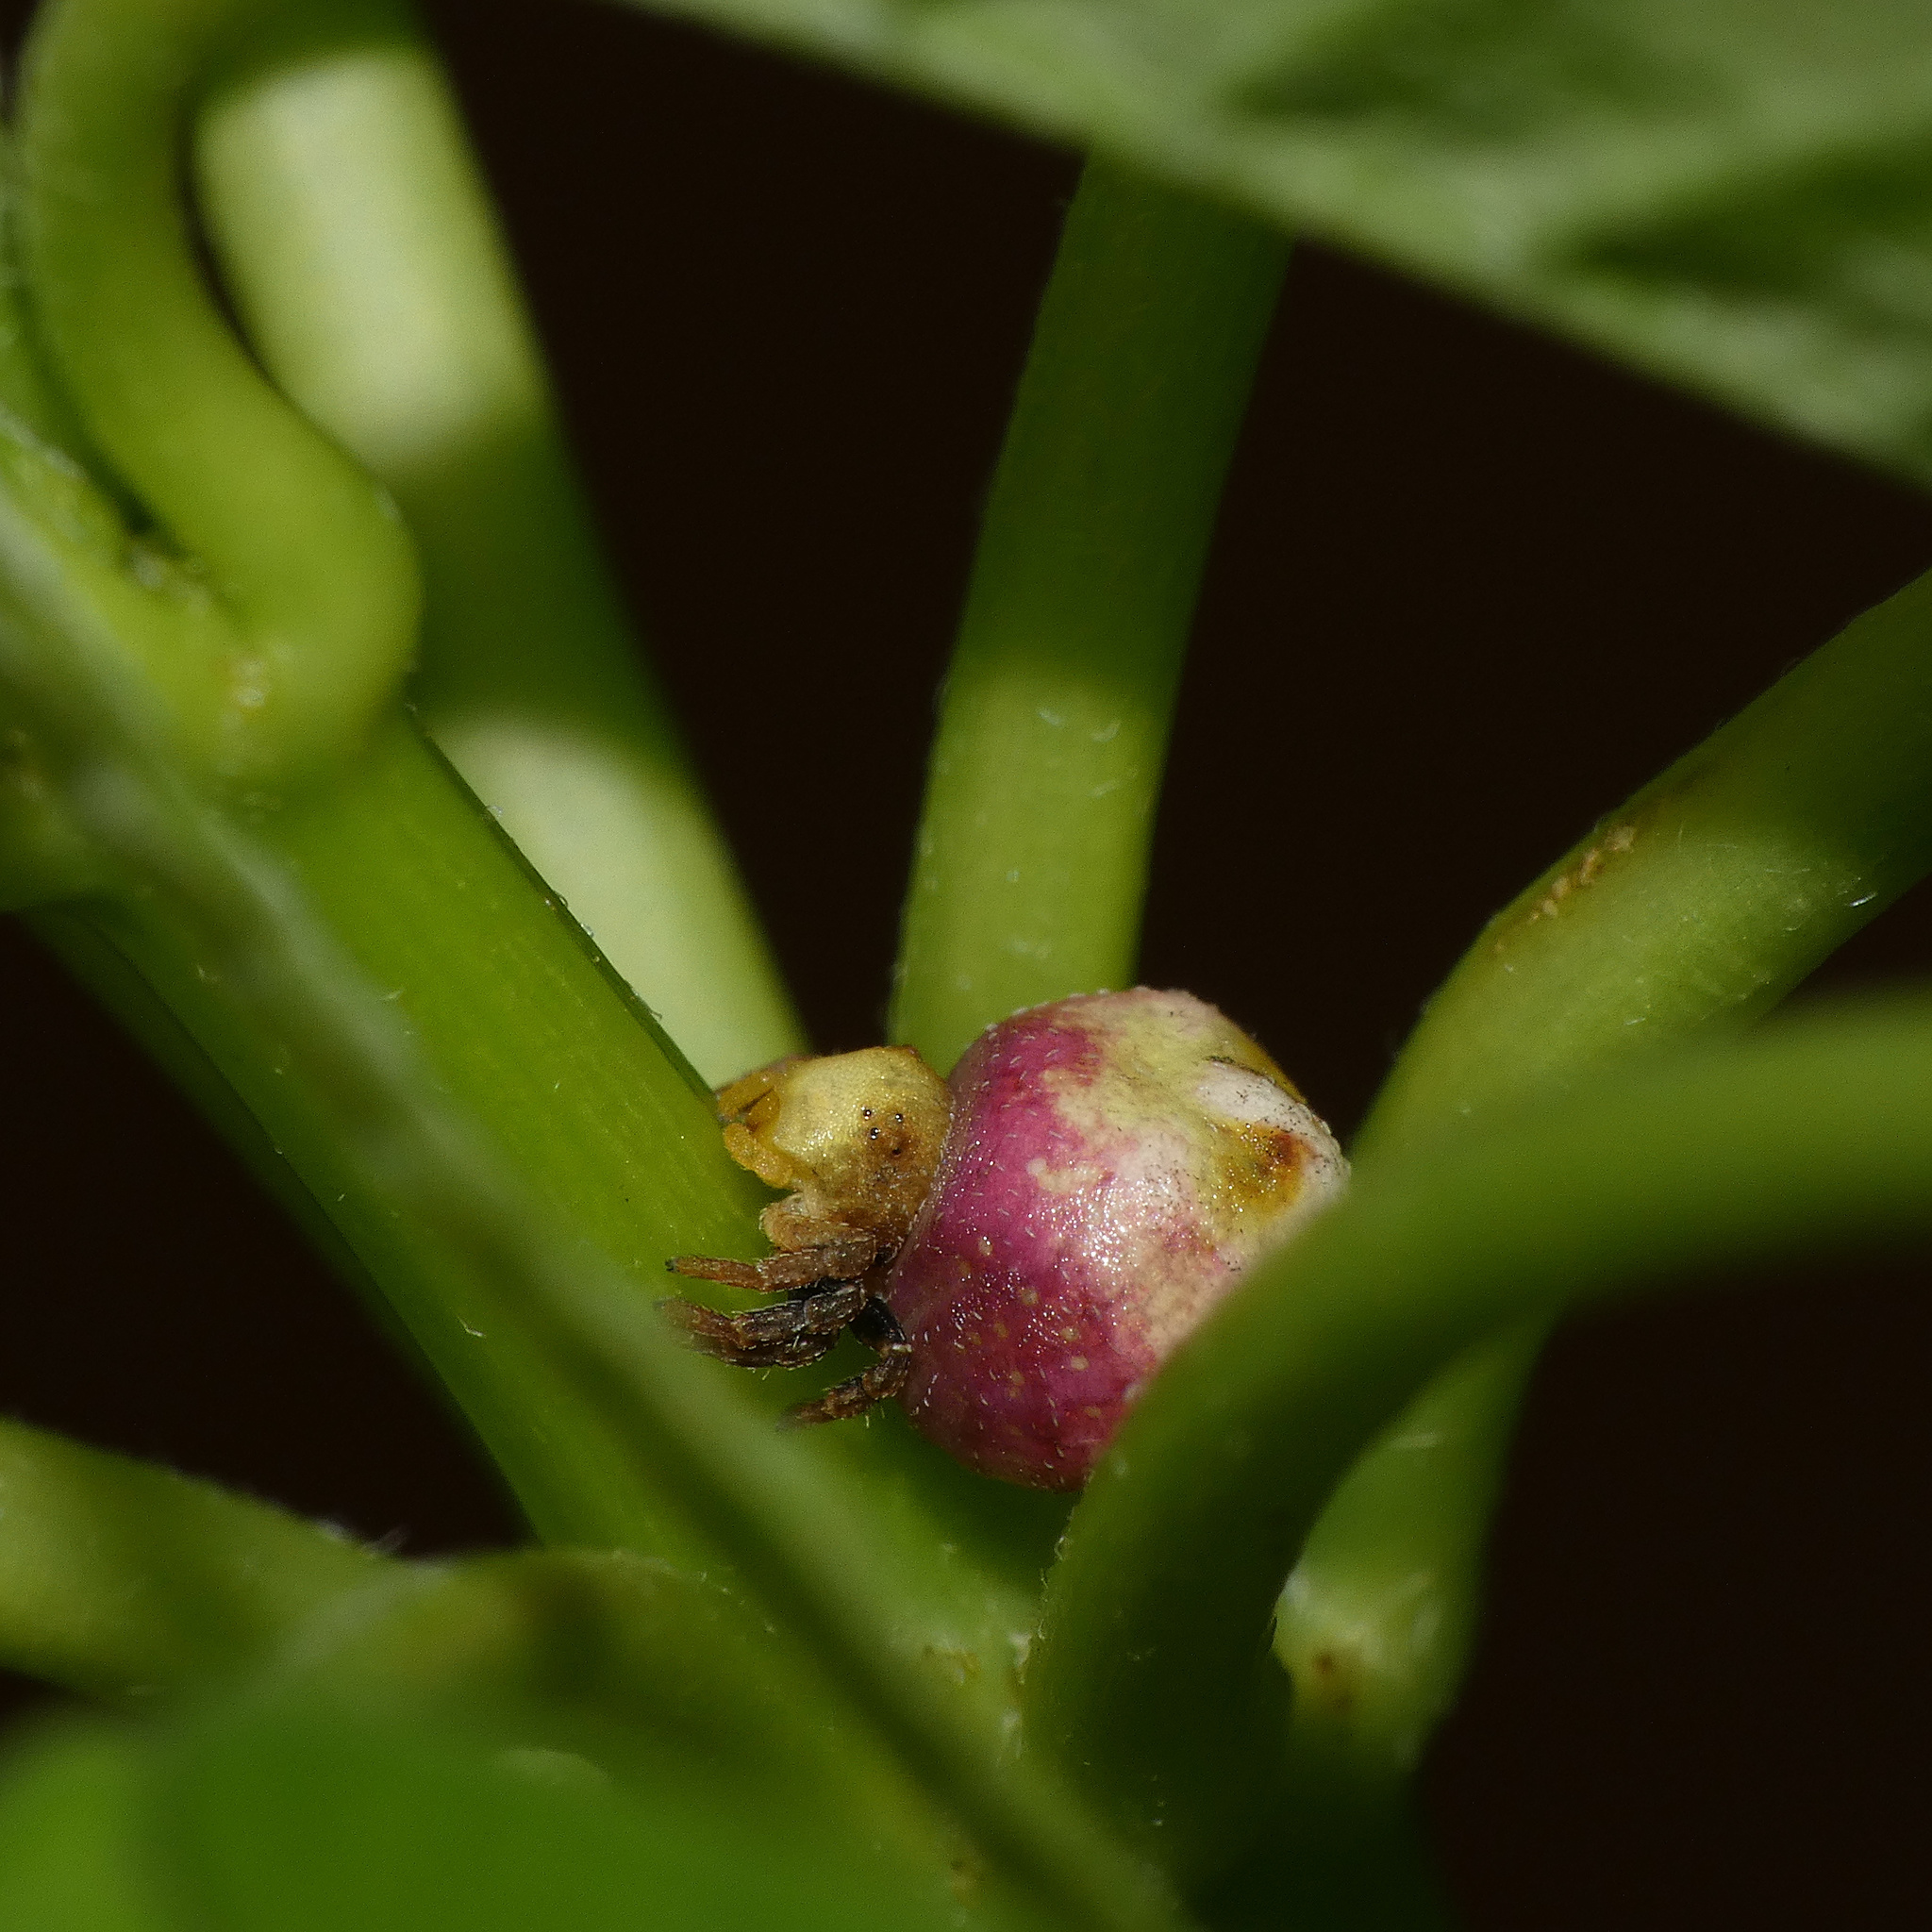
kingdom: Animalia
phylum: Arthropoda
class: Arachnida
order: Araneae
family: Thomisidae
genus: Parabomis
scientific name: Parabomis megae
